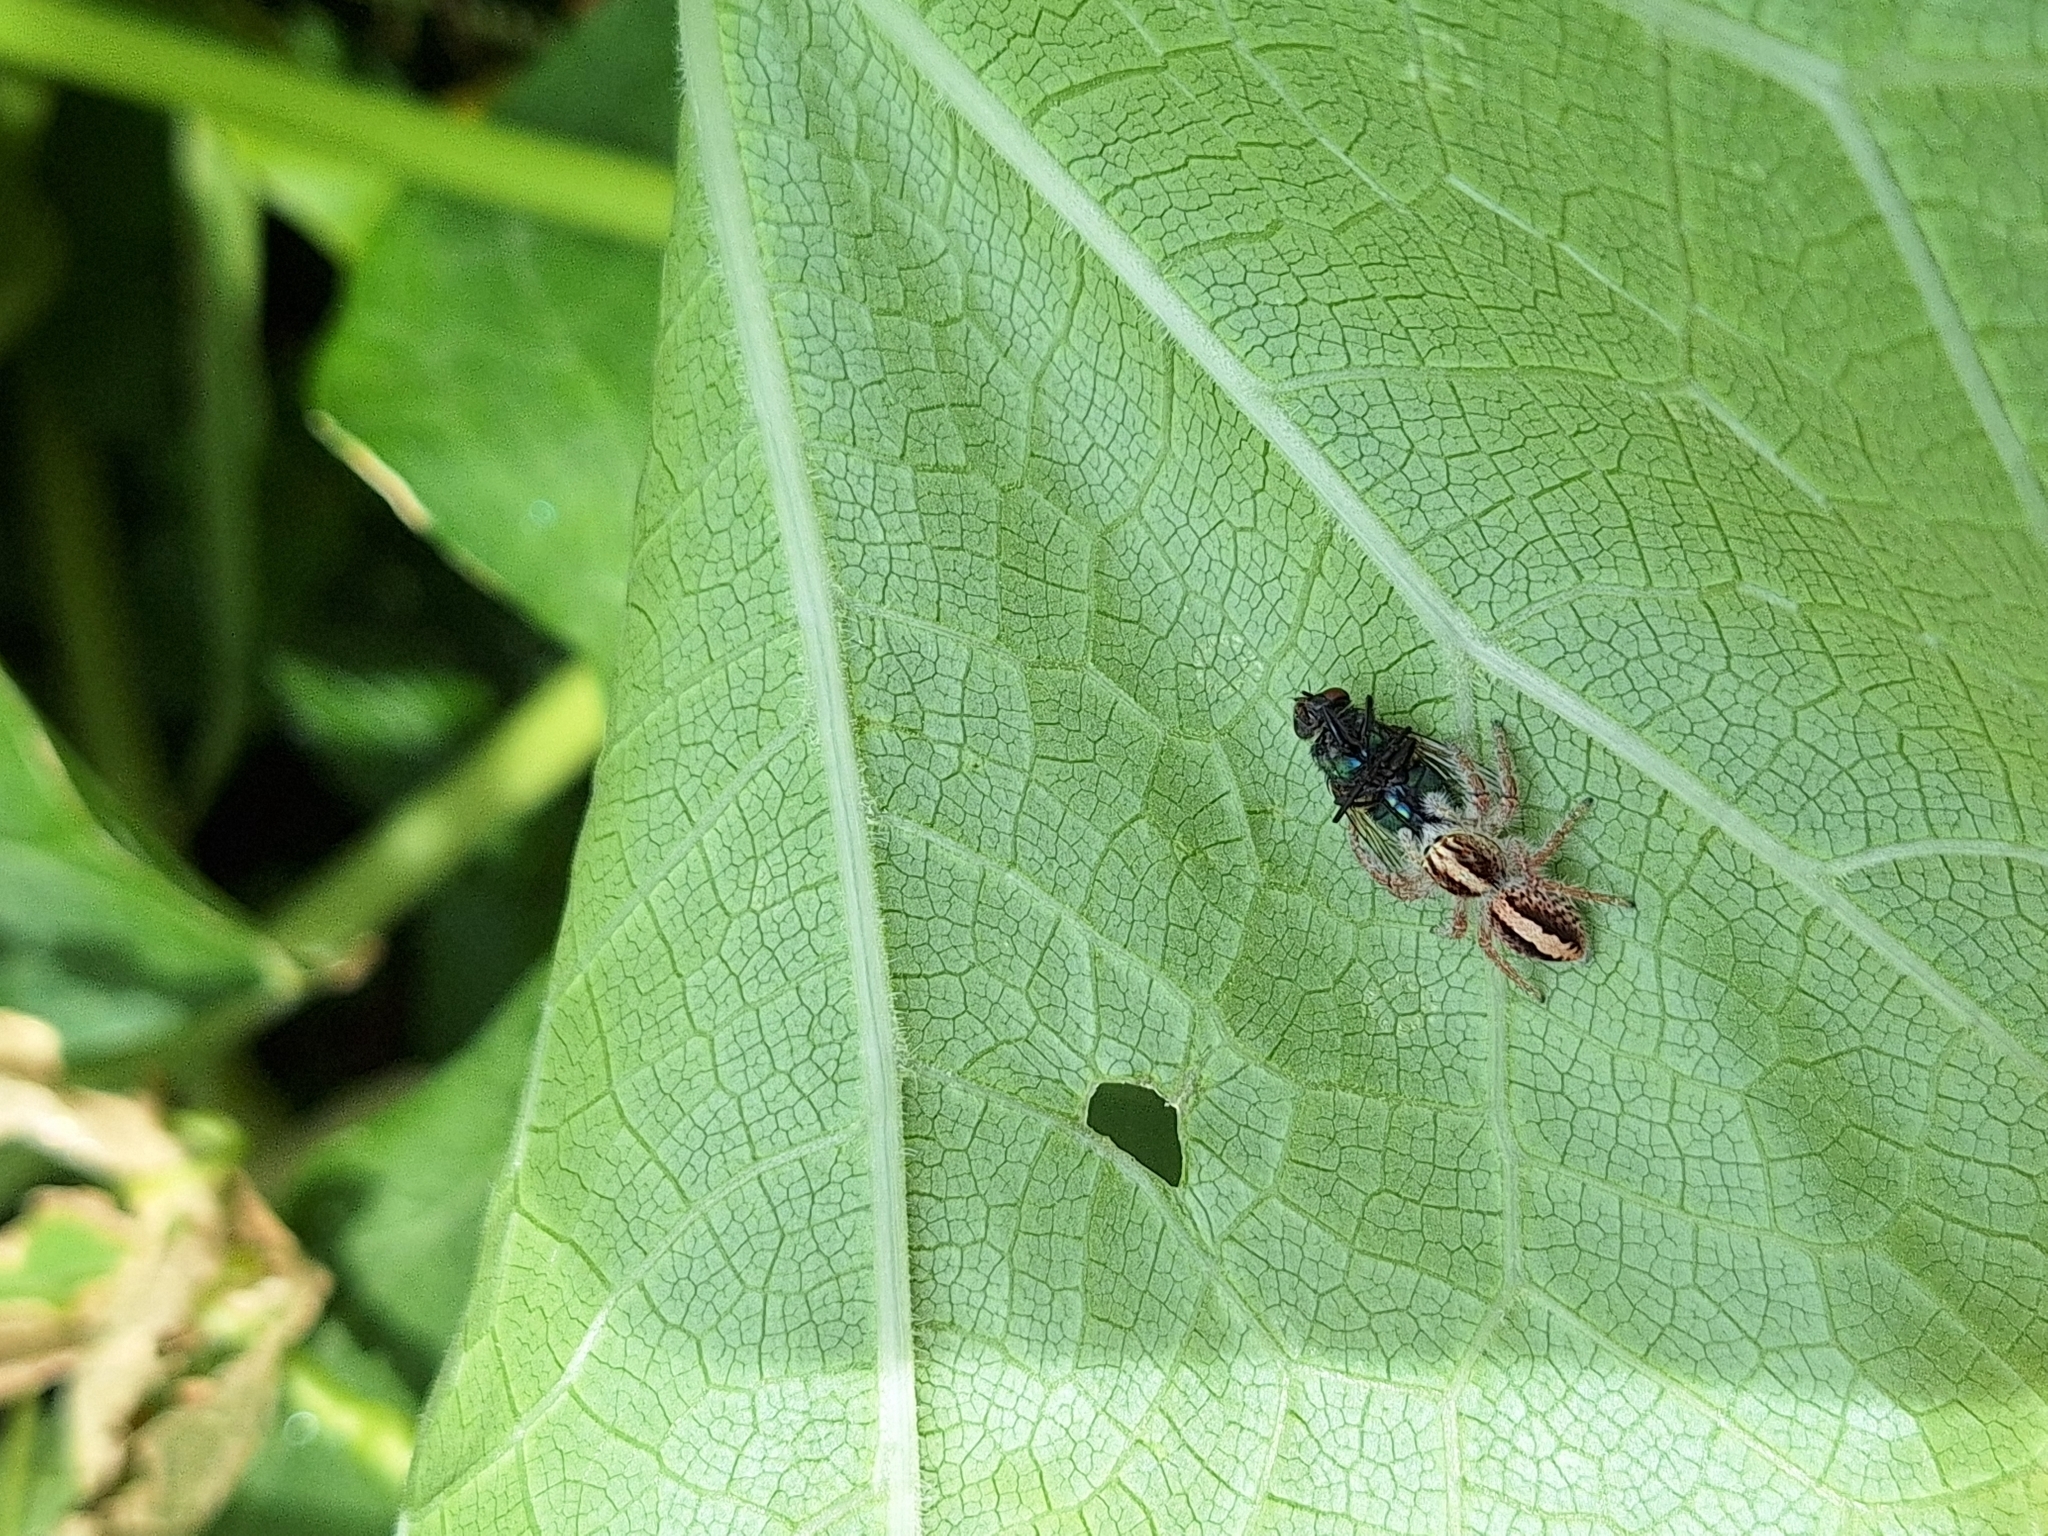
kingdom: Animalia
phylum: Arthropoda
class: Arachnida
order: Araneae
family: Salticidae
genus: Megafreya
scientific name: Megafreya sutrix
